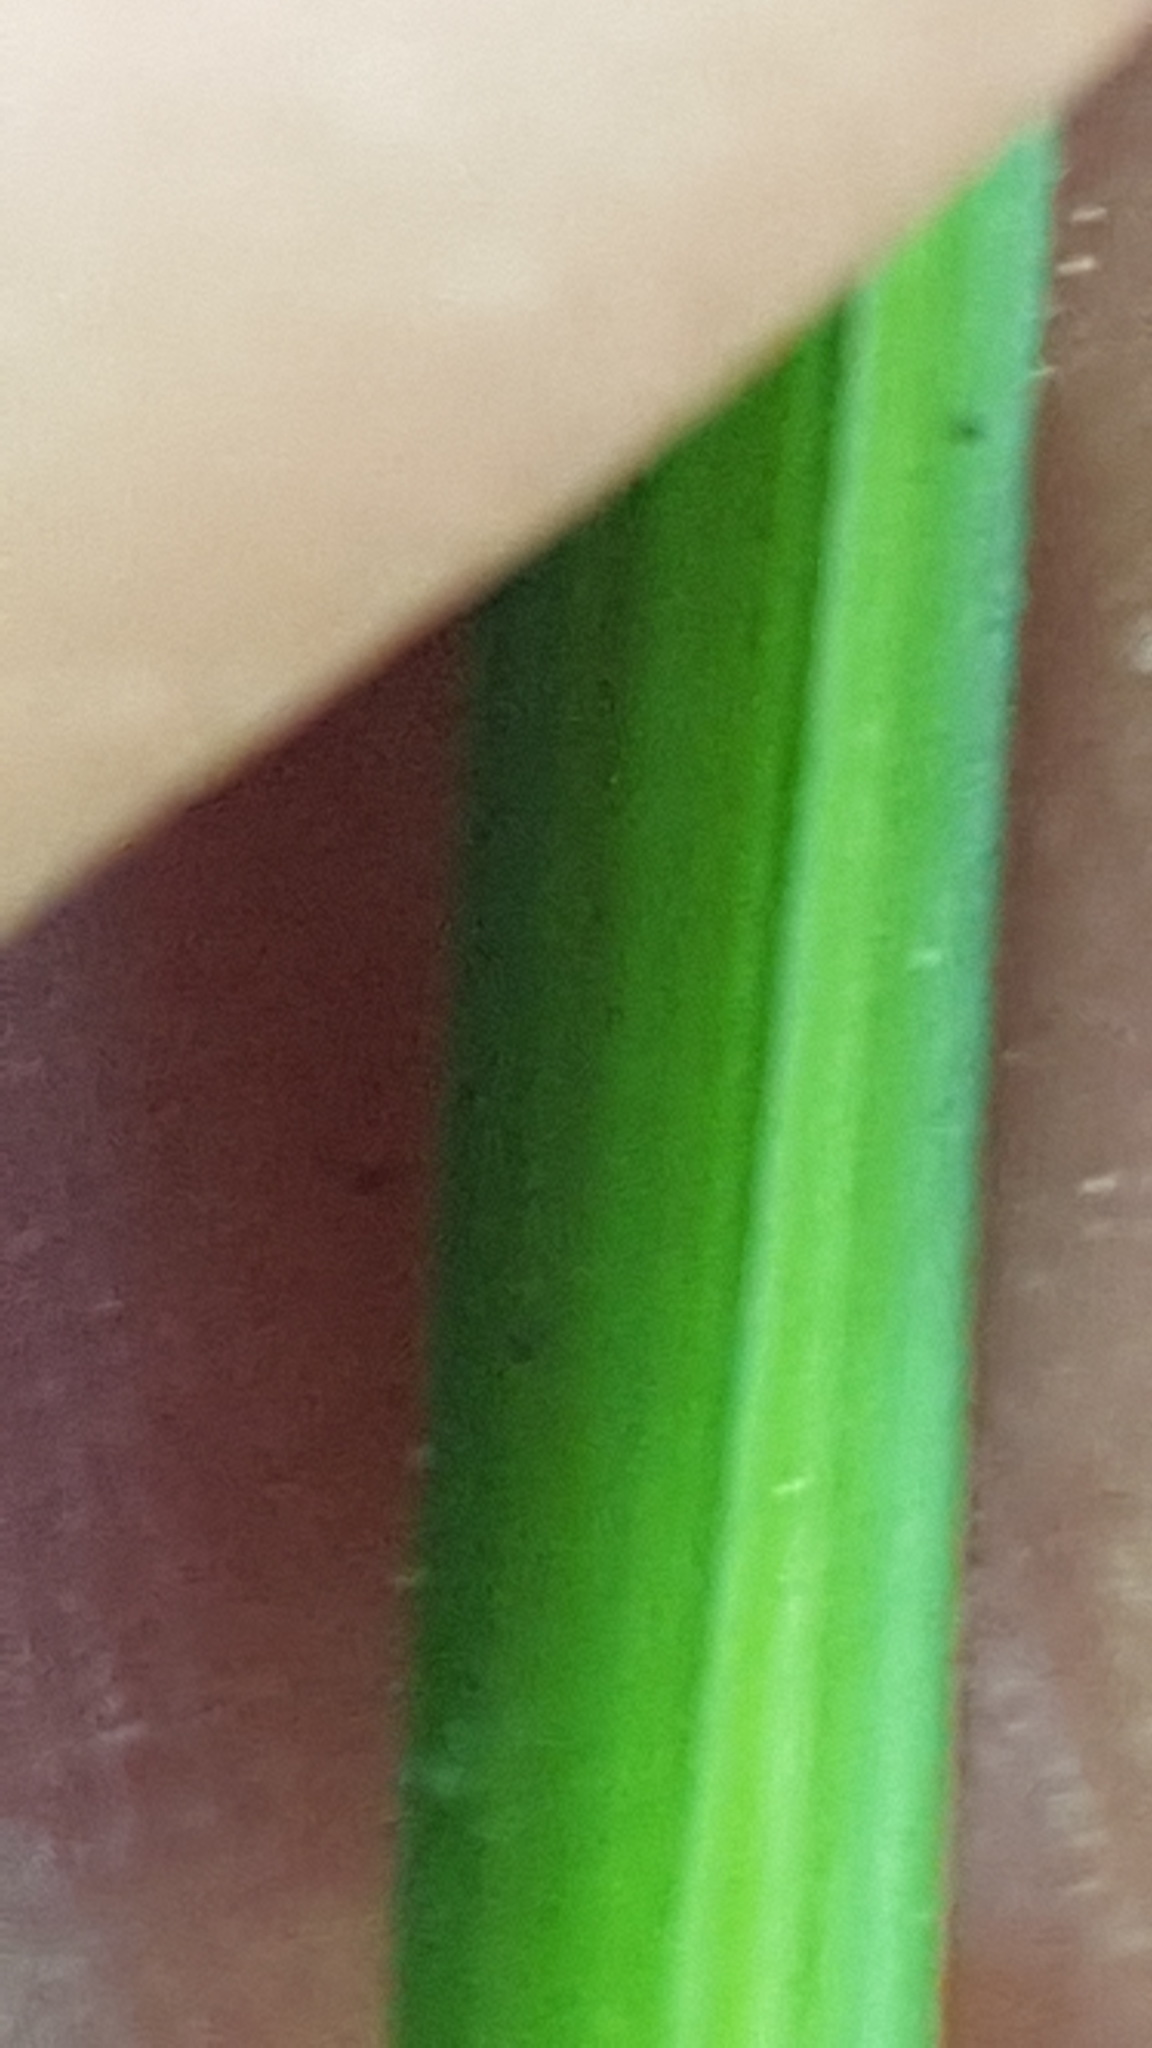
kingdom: Plantae
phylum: Tracheophyta
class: Liliopsida
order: Poales
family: Cyperaceae
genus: Carex
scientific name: Carex stipata
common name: Awl-fruited sedge
